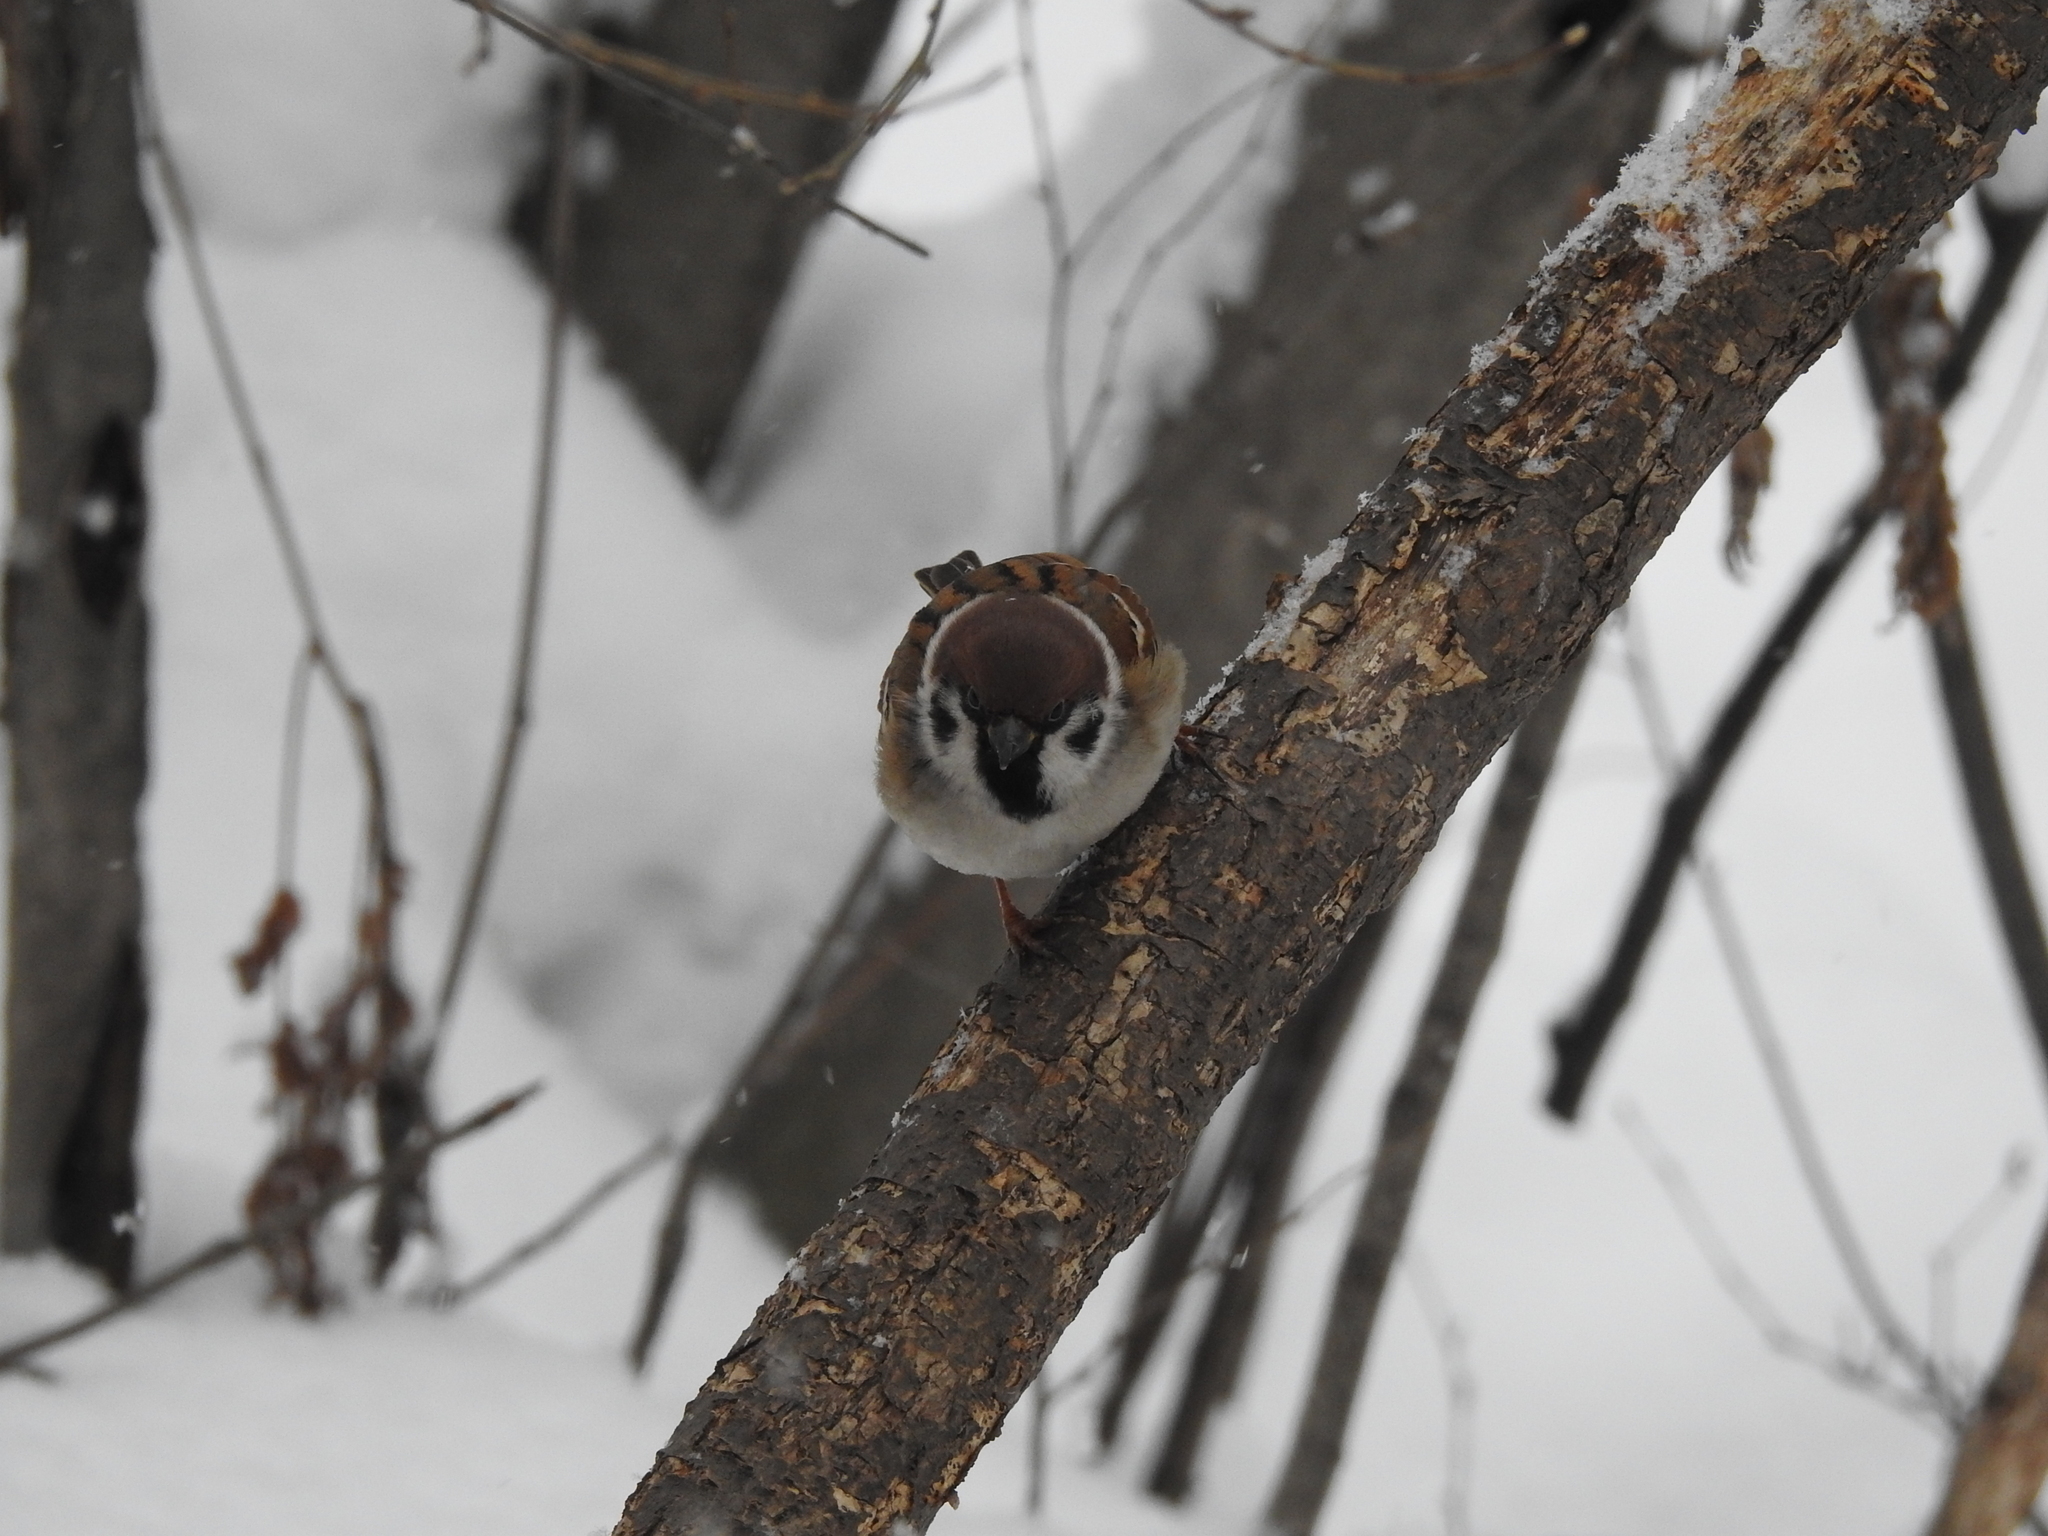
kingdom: Animalia
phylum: Chordata
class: Aves
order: Passeriformes
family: Passeridae
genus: Passer
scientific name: Passer montanus
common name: Eurasian tree sparrow
